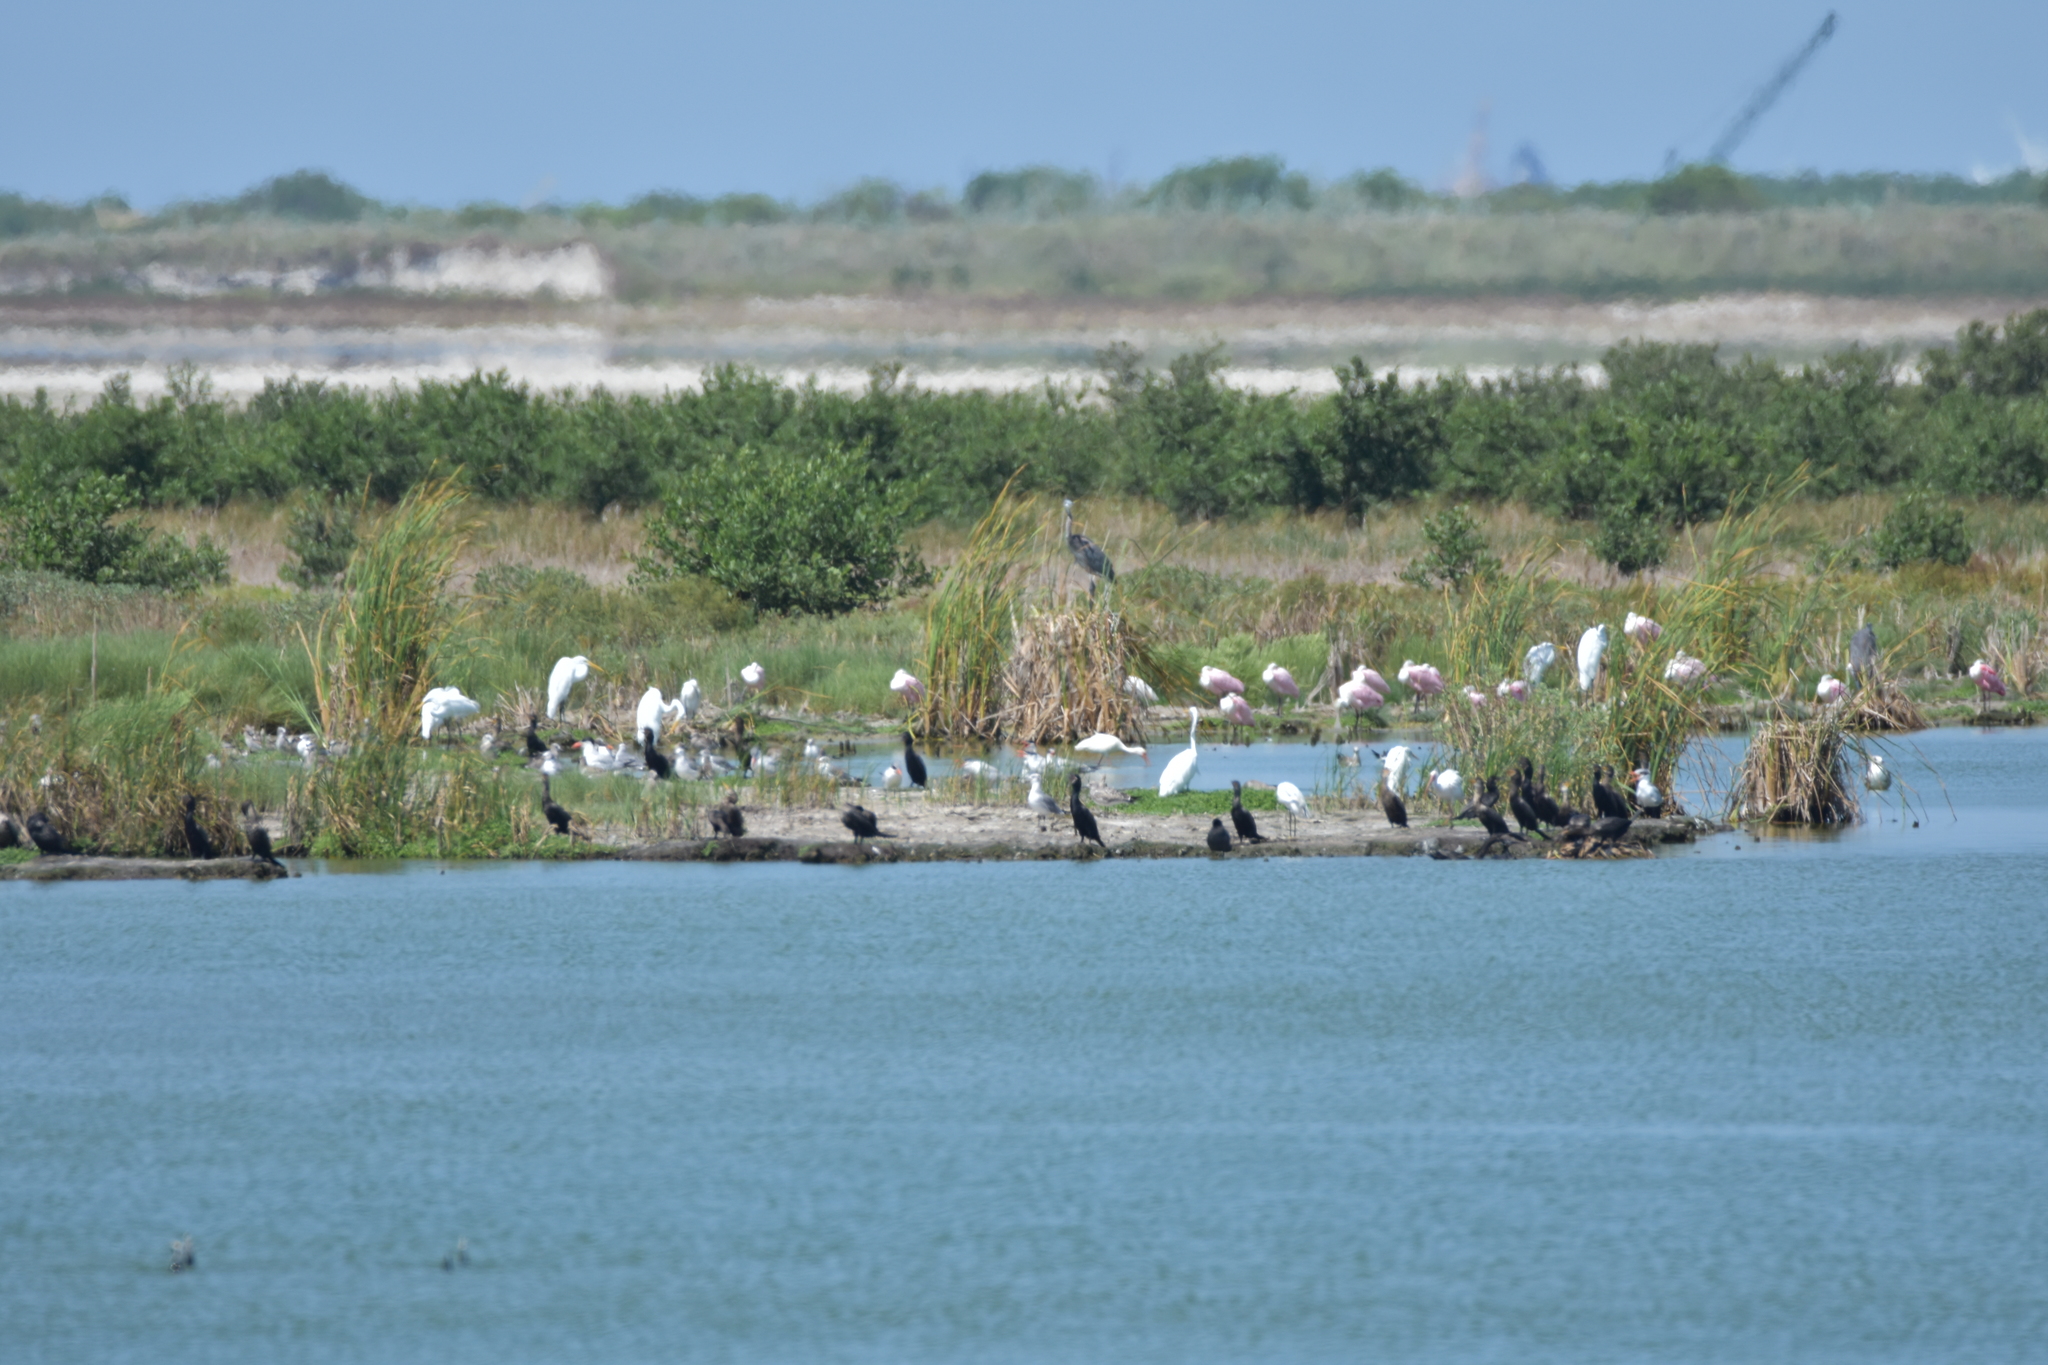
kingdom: Animalia
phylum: Chordata
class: Aves
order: Suliformes
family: Phalacrocoracidae
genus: Phalacrocorax
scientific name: Phalacrocorax brasilianus
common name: Neotropic cormorant
